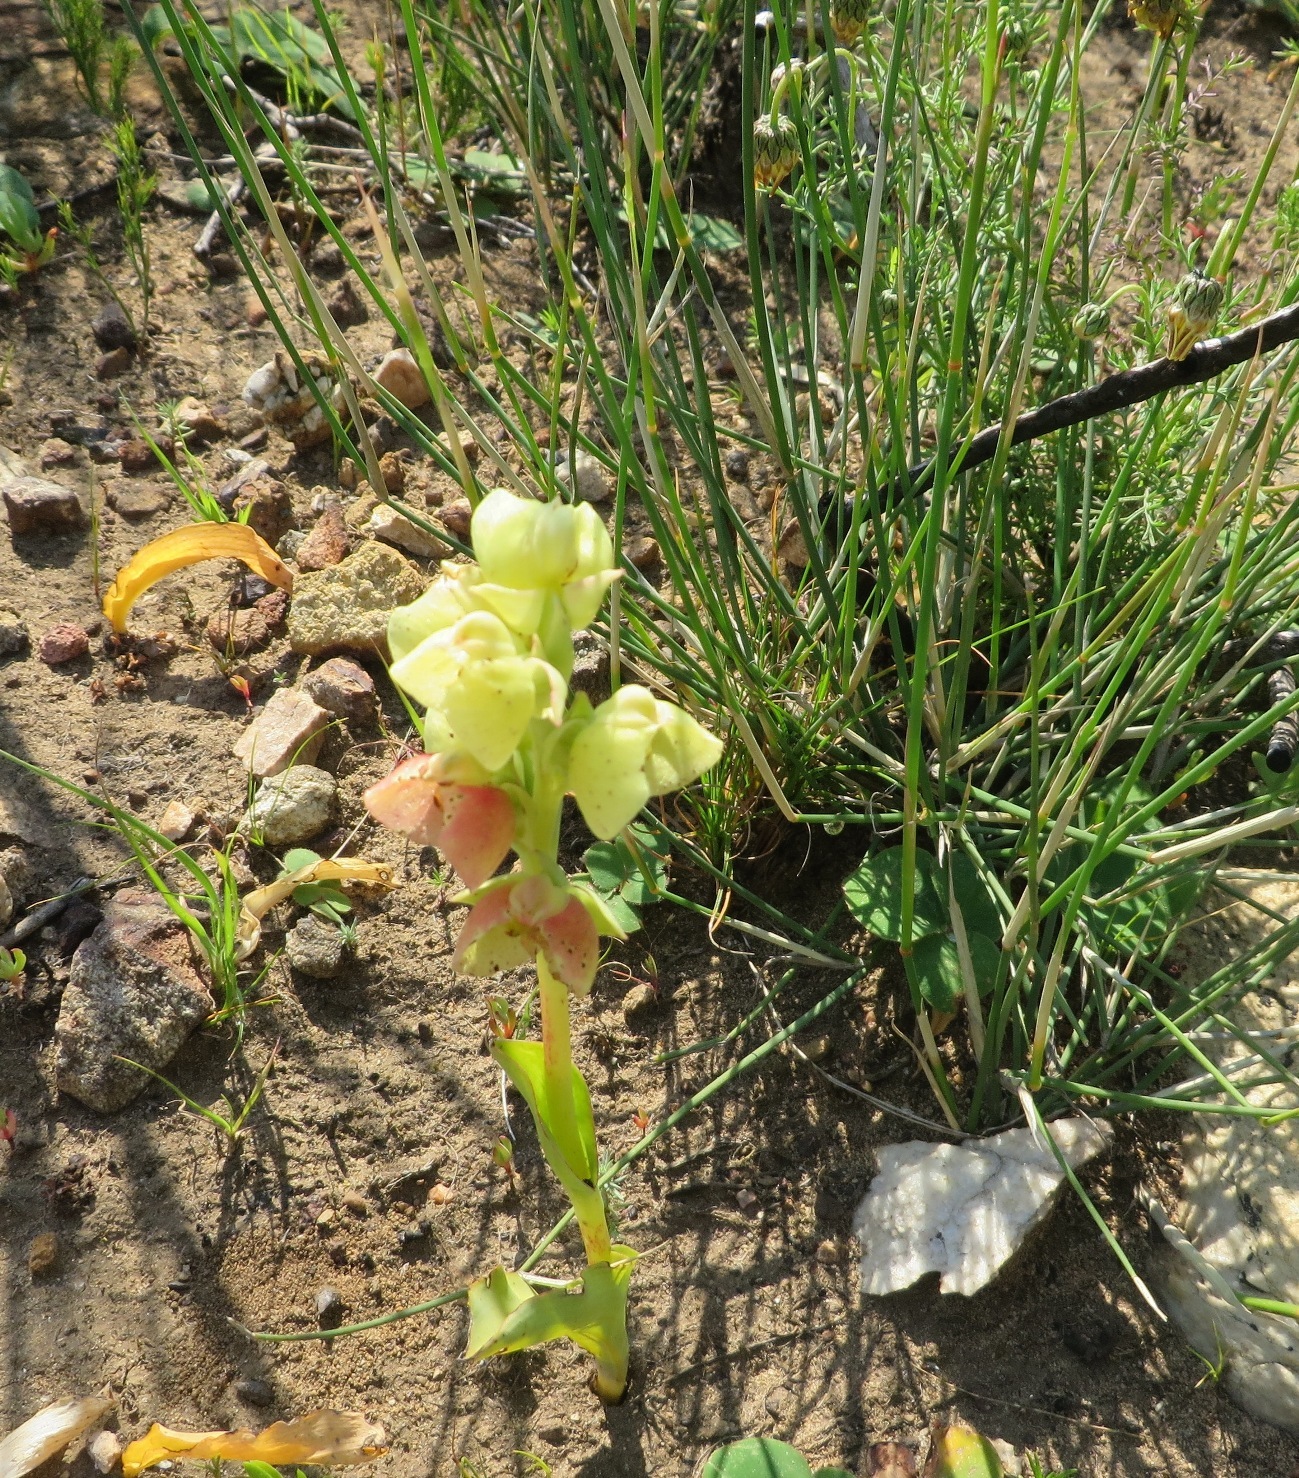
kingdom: Plantae
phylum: Tracheophyta
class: Liliopsida
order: Asparagales
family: Orchidaceae
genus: Pterygodium
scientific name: Pterygodium catholicum
